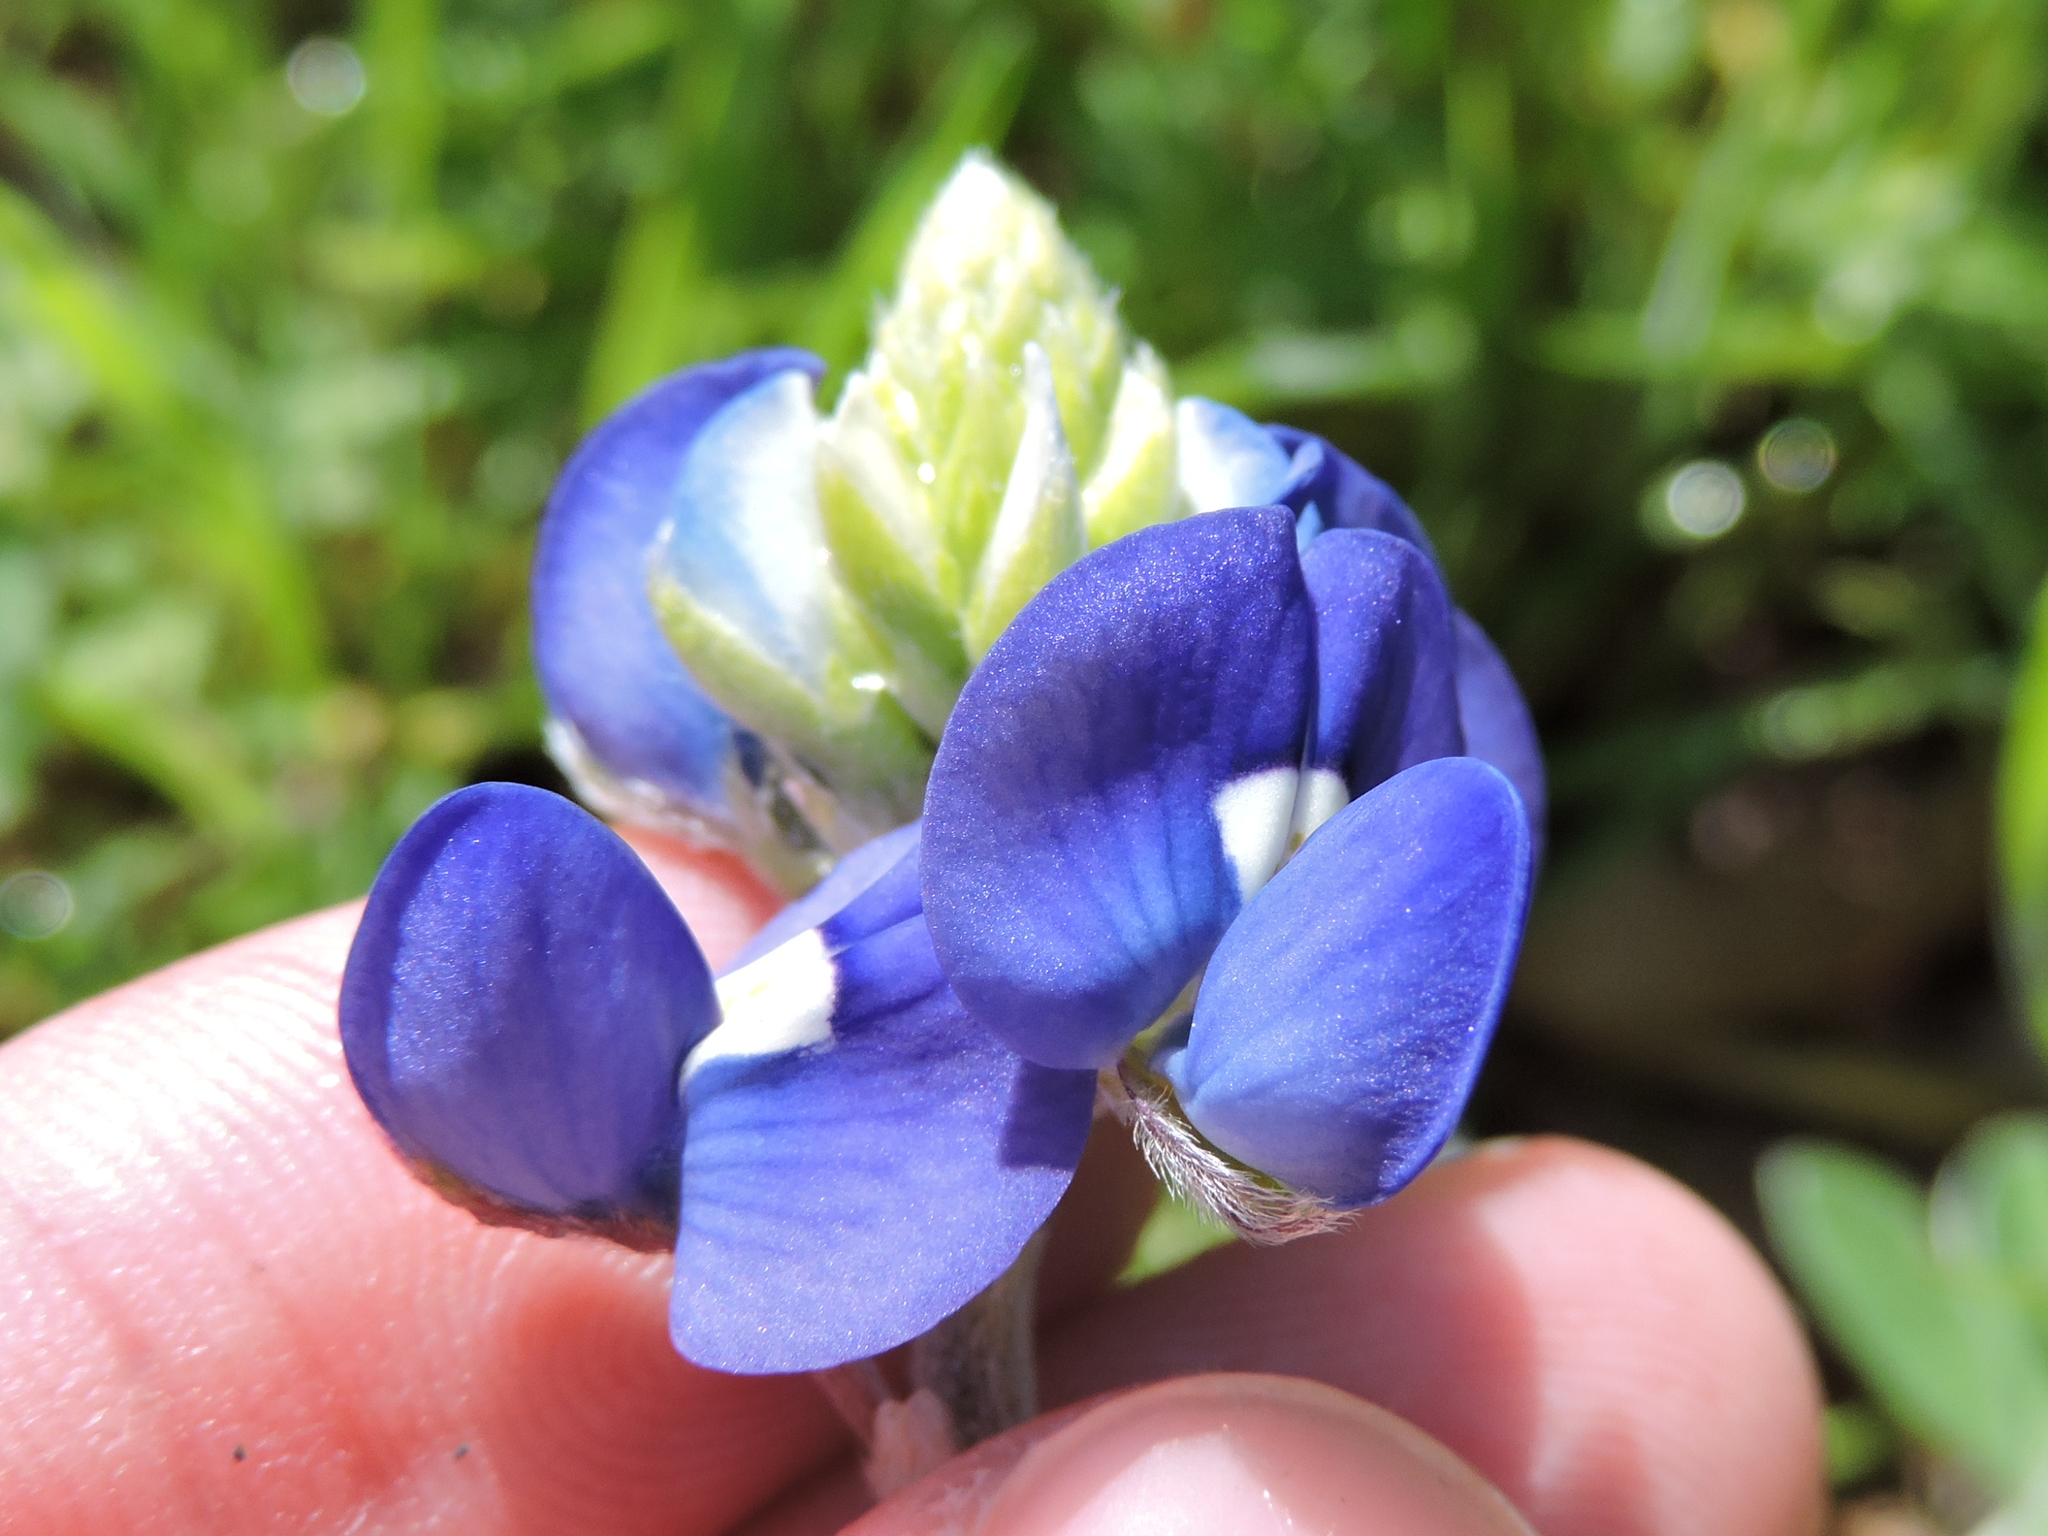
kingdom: Plantae
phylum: Tracheophyta
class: Magnoliopsida
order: Fabales
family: Fabaceae
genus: Lupinus
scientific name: Lupinus texensis
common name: Texas bluebonnet
